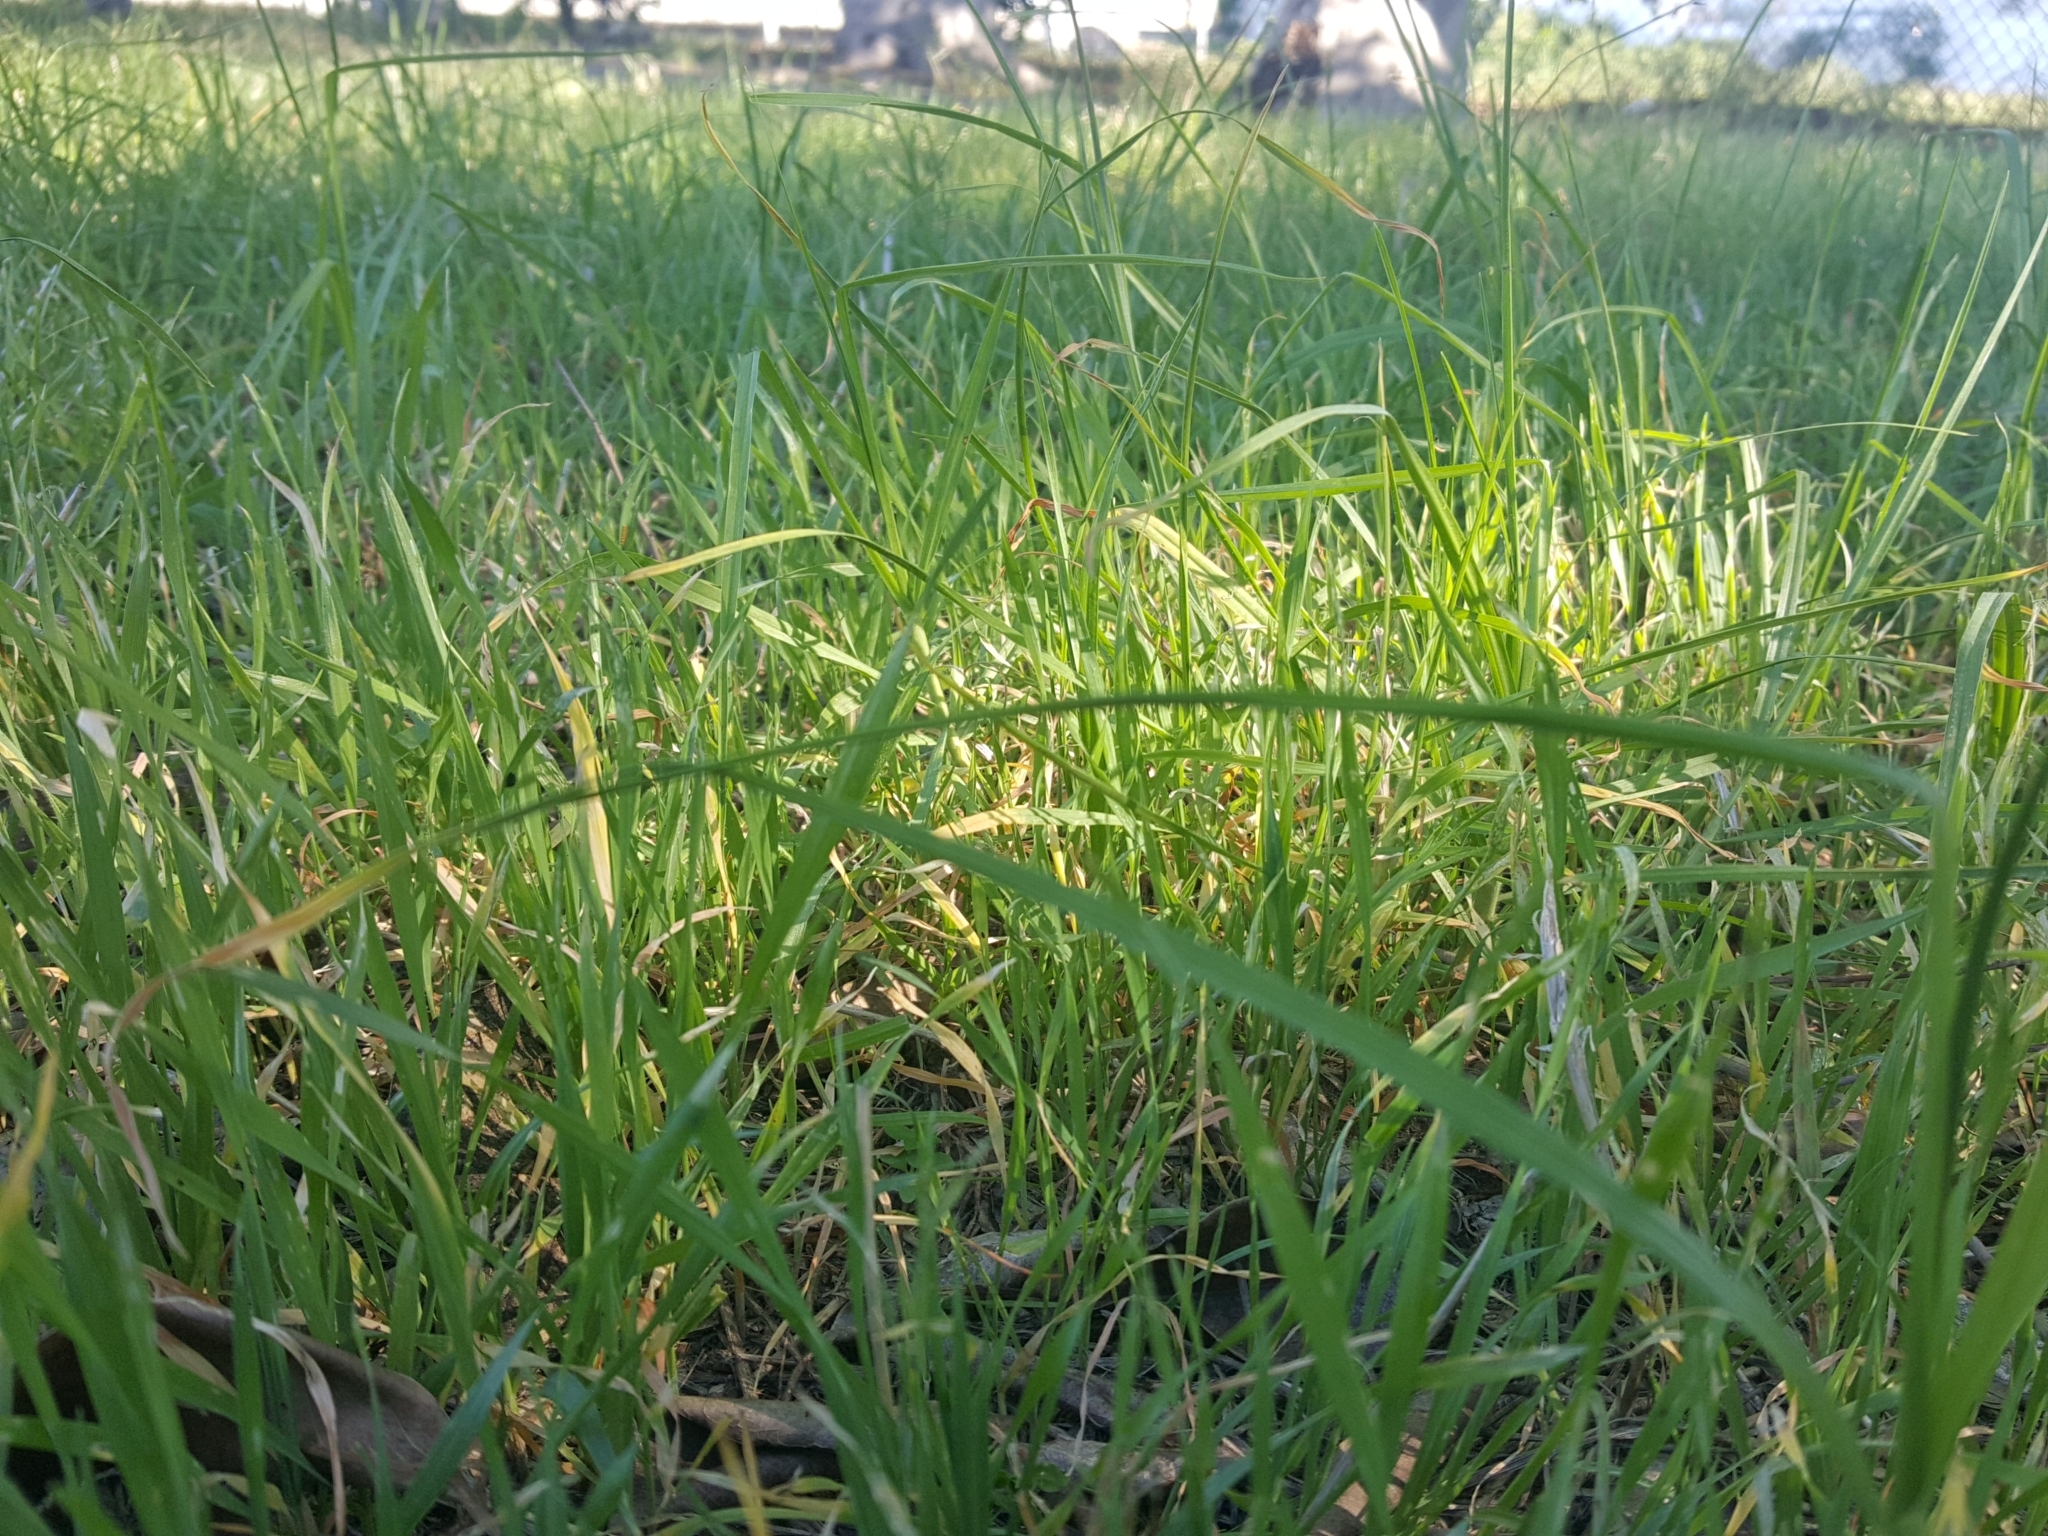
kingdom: Plantae
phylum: Tracheophyta
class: Liliopsida
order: Poales
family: Poaceae
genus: Cenchrus
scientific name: Cenchrus clandestinus
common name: Kikuyugrass
